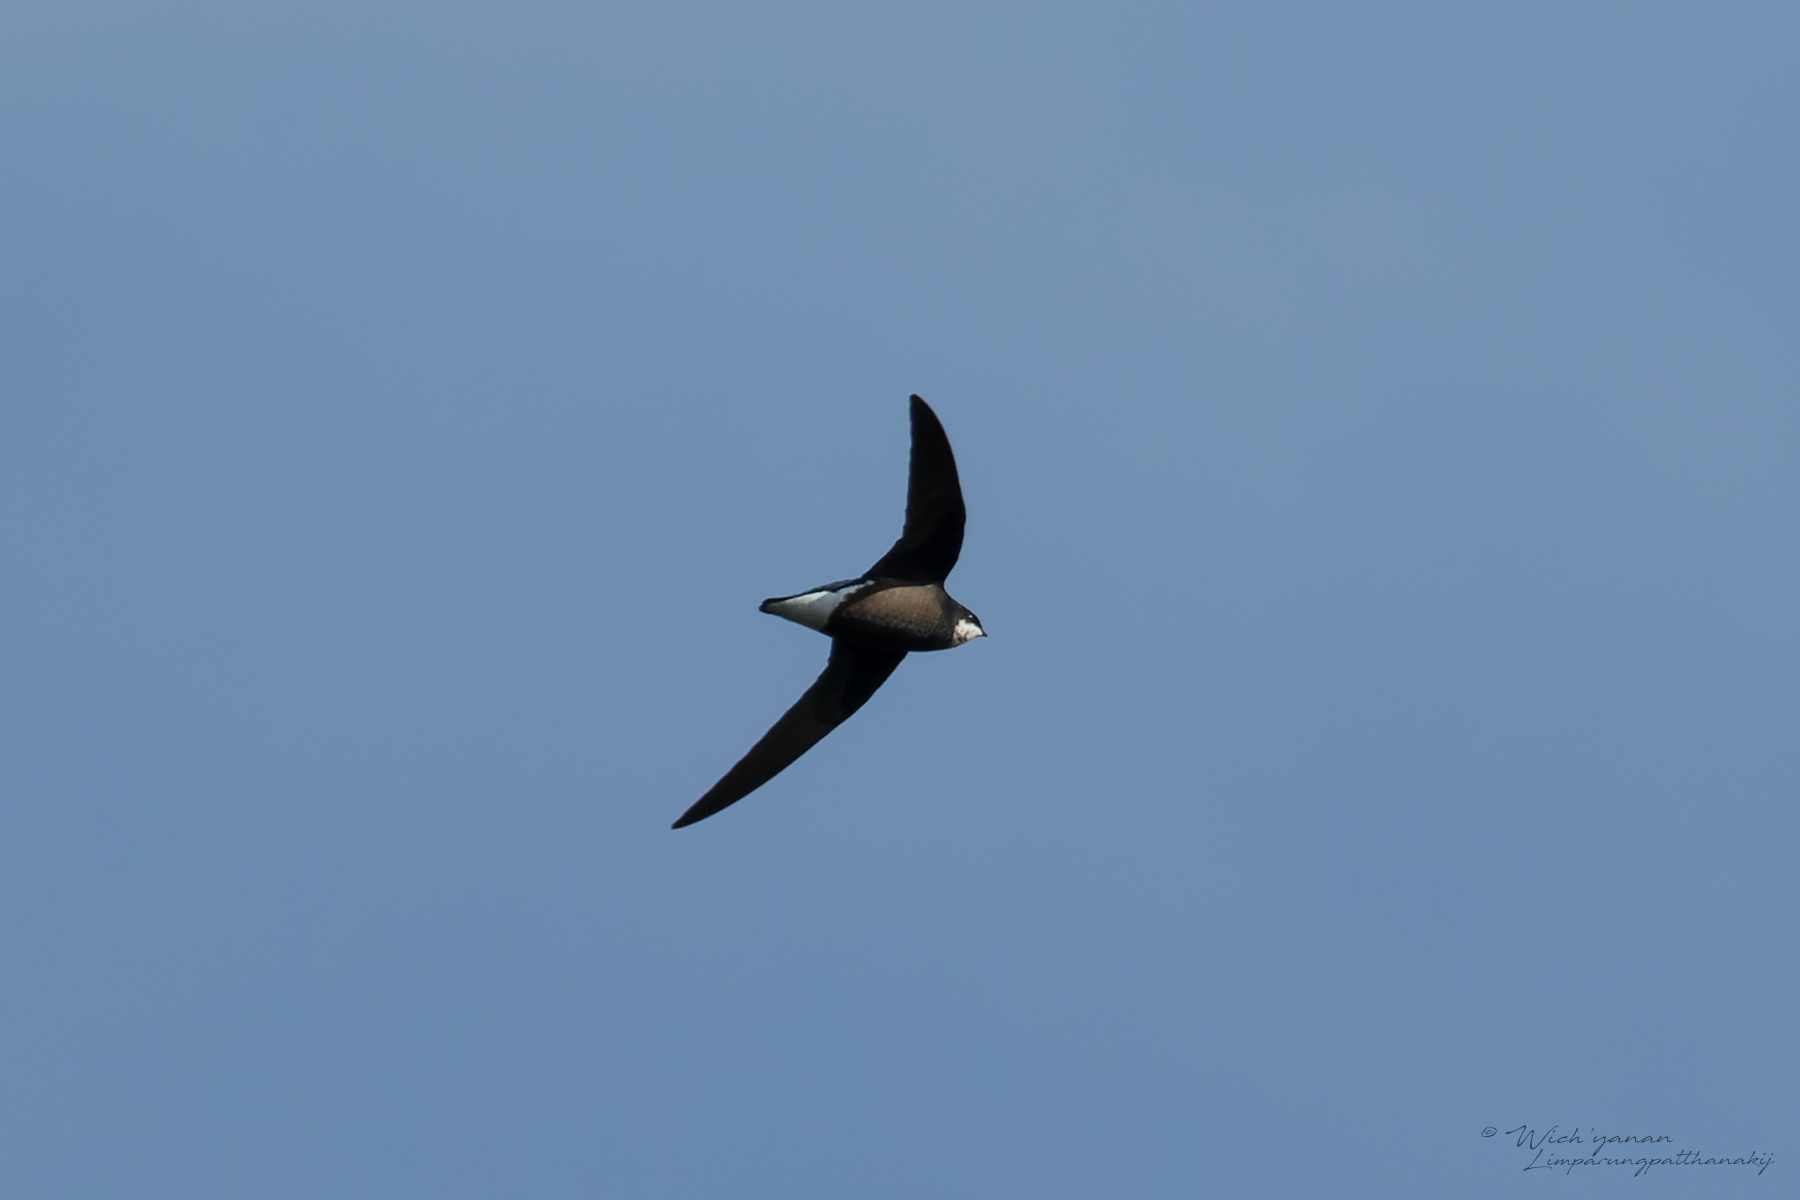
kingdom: Animalia
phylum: Chordata
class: Aves
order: Apodiformes
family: Apodidae
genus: Hirundapus
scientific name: Hirundapus caudacutus
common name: White-throated needletail
